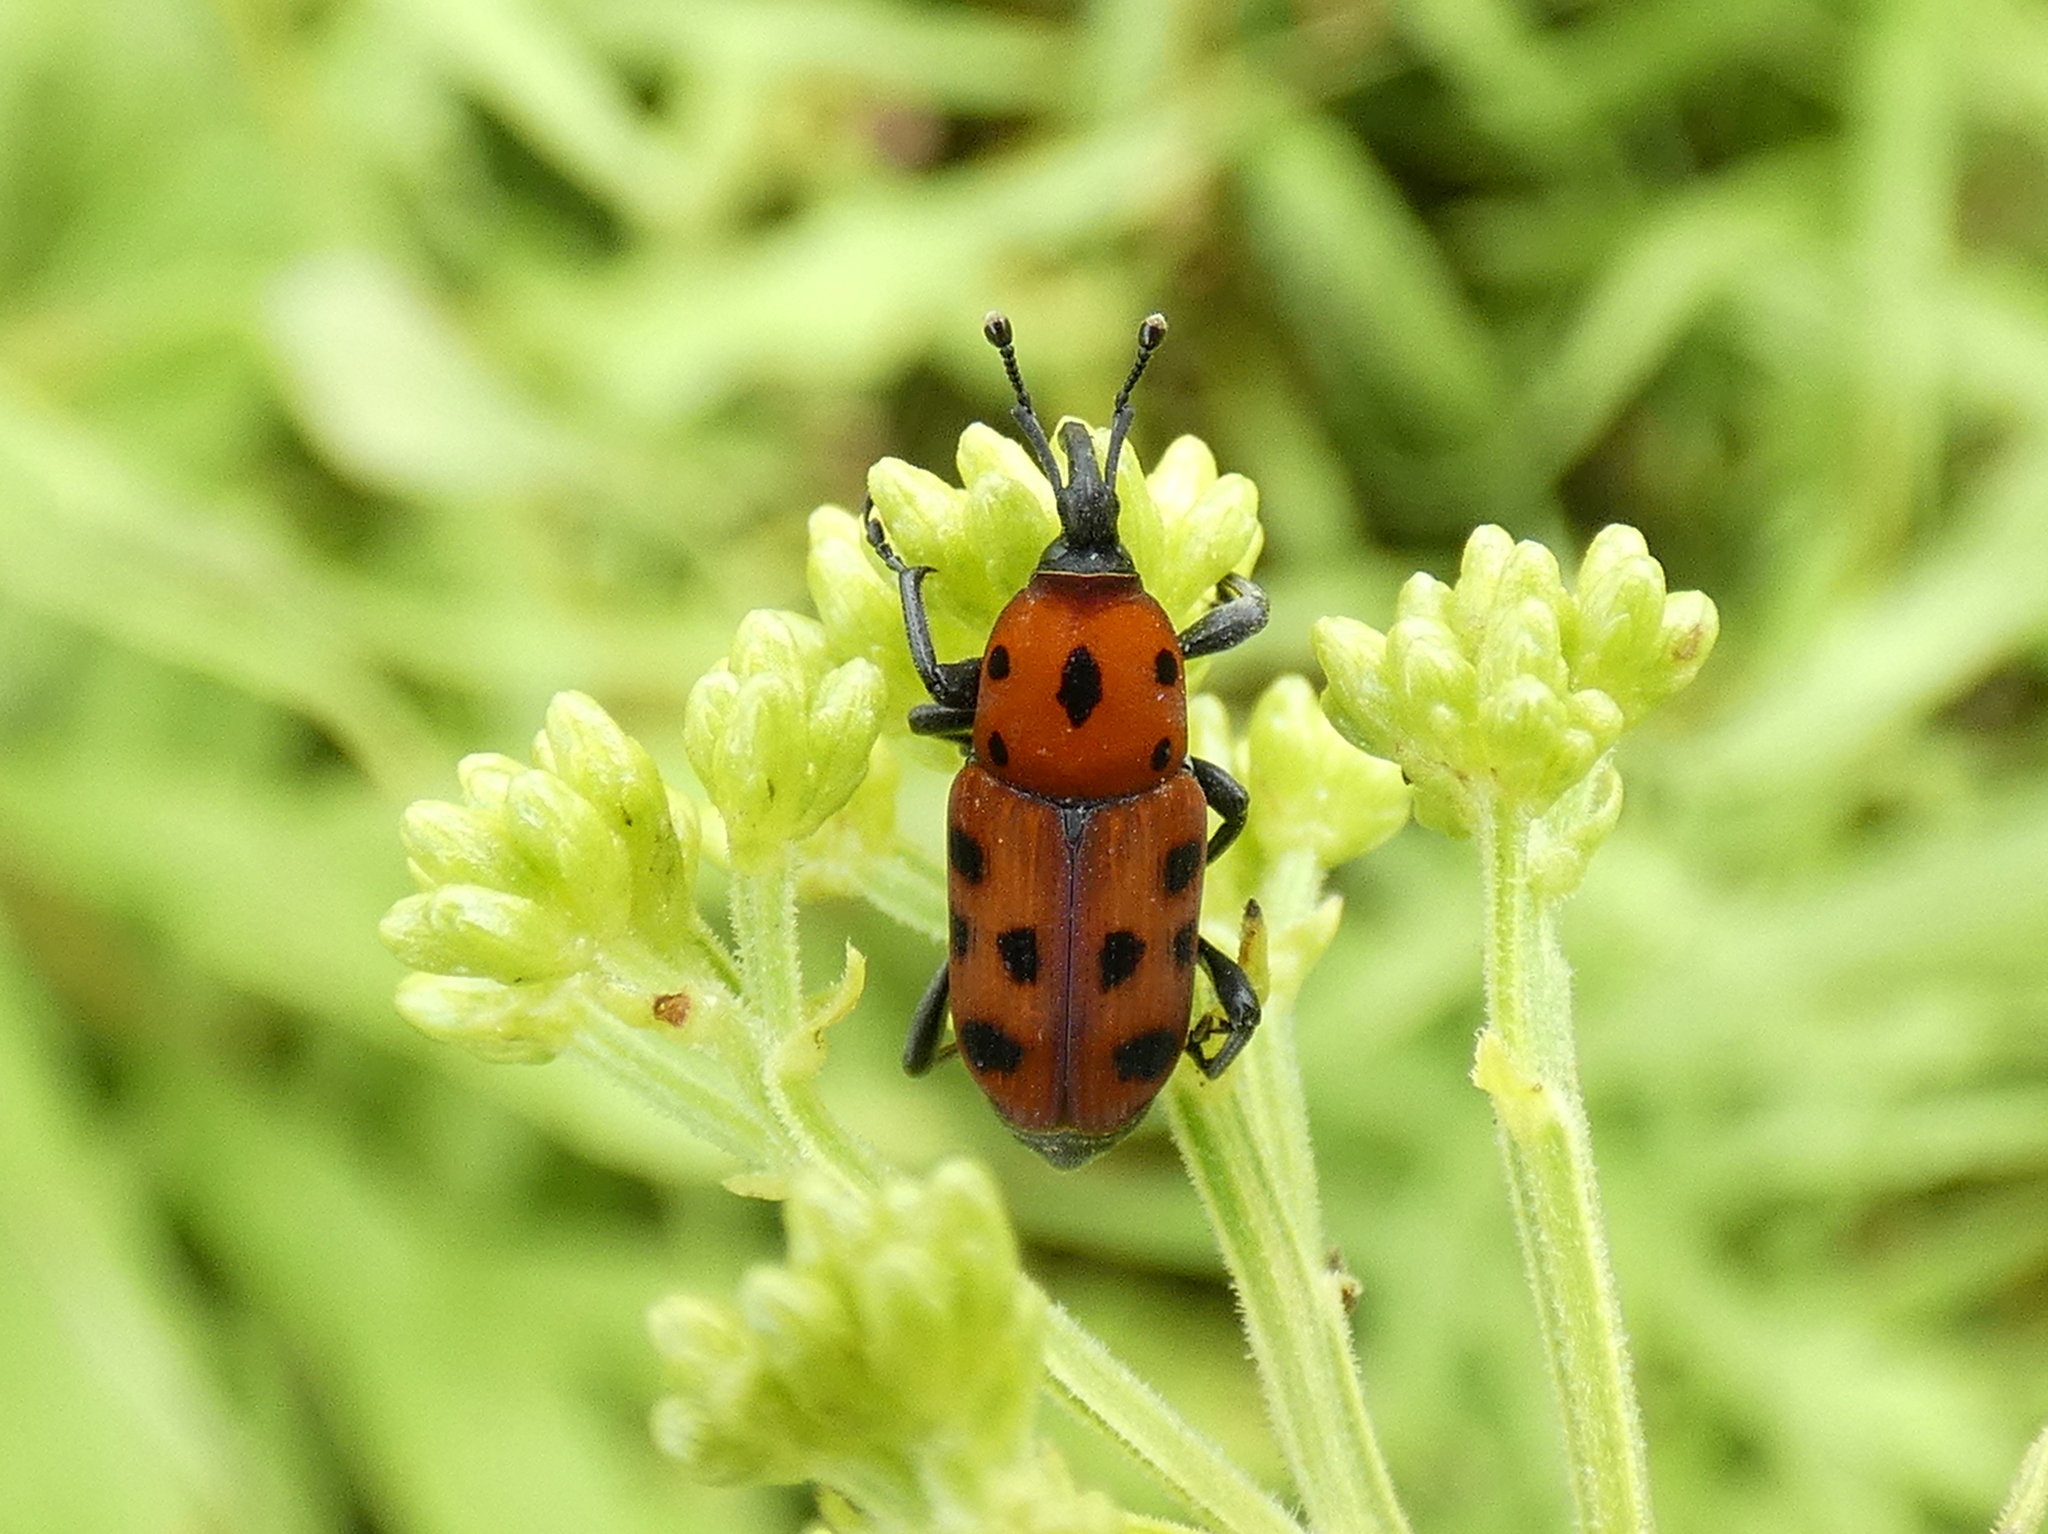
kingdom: Animalia
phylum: Arthropoda
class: Insecta
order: Coleoptera
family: Dryophthoridae
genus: Rhodobaenus
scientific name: Rhodobaenus tredecimpunctatus
